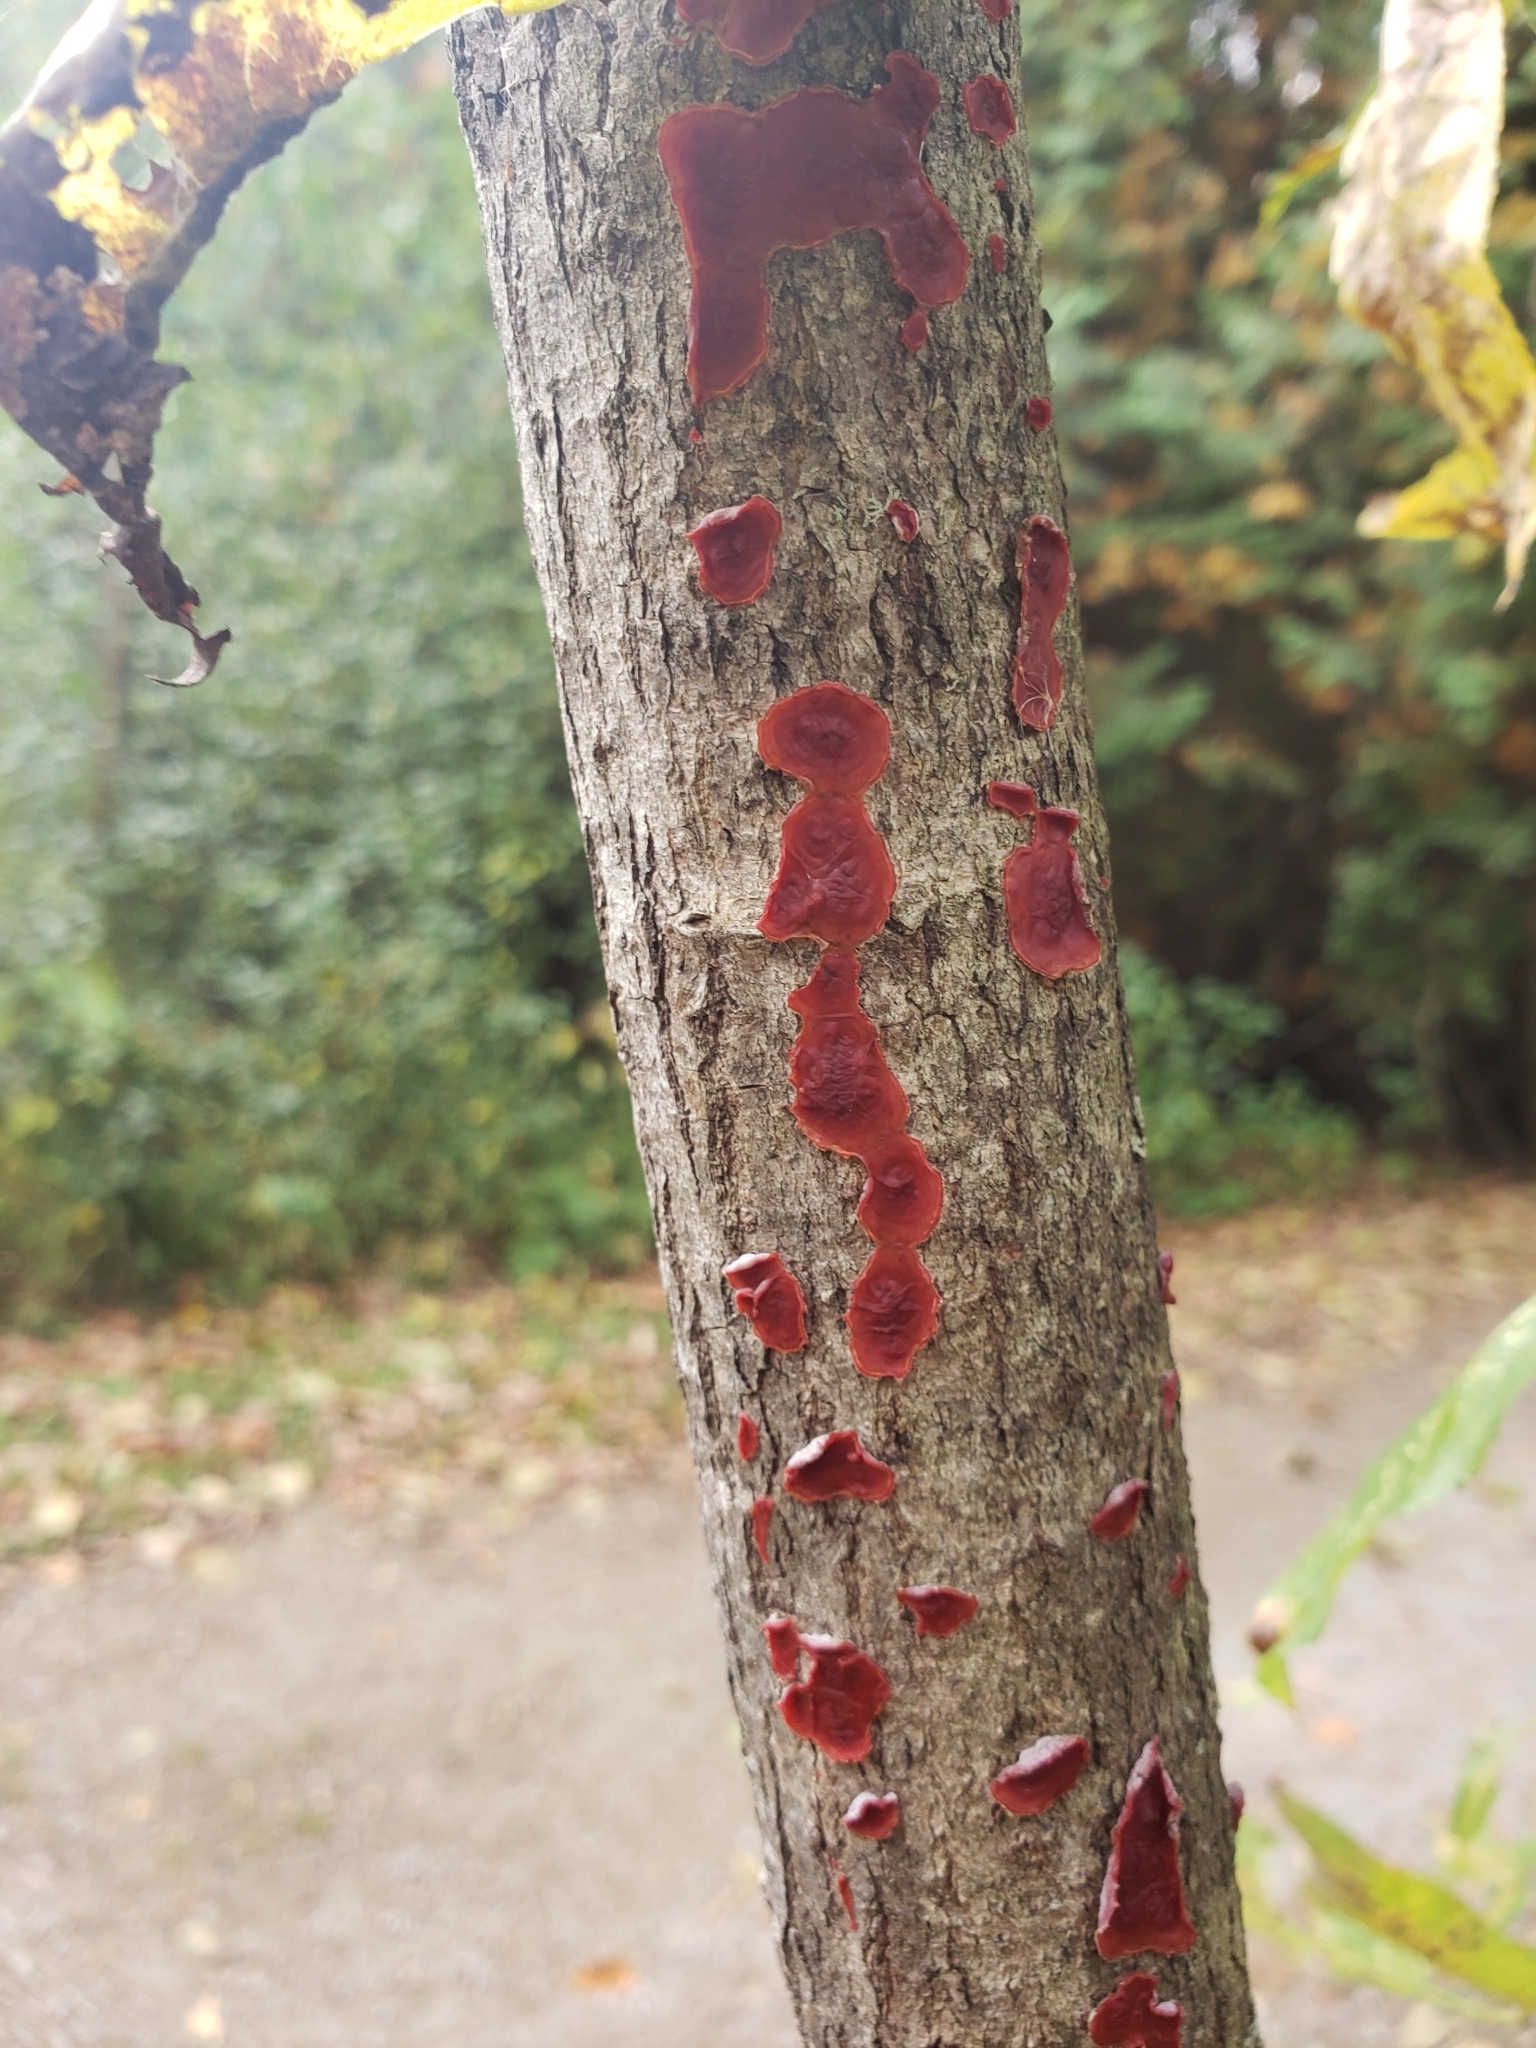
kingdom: Fungi
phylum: Basidiomycota
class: Agaricomycetes
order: Corticiales
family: Vuilleminiaceae
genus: Cytidia
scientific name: Cytidia salicina
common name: Scarlet splash
